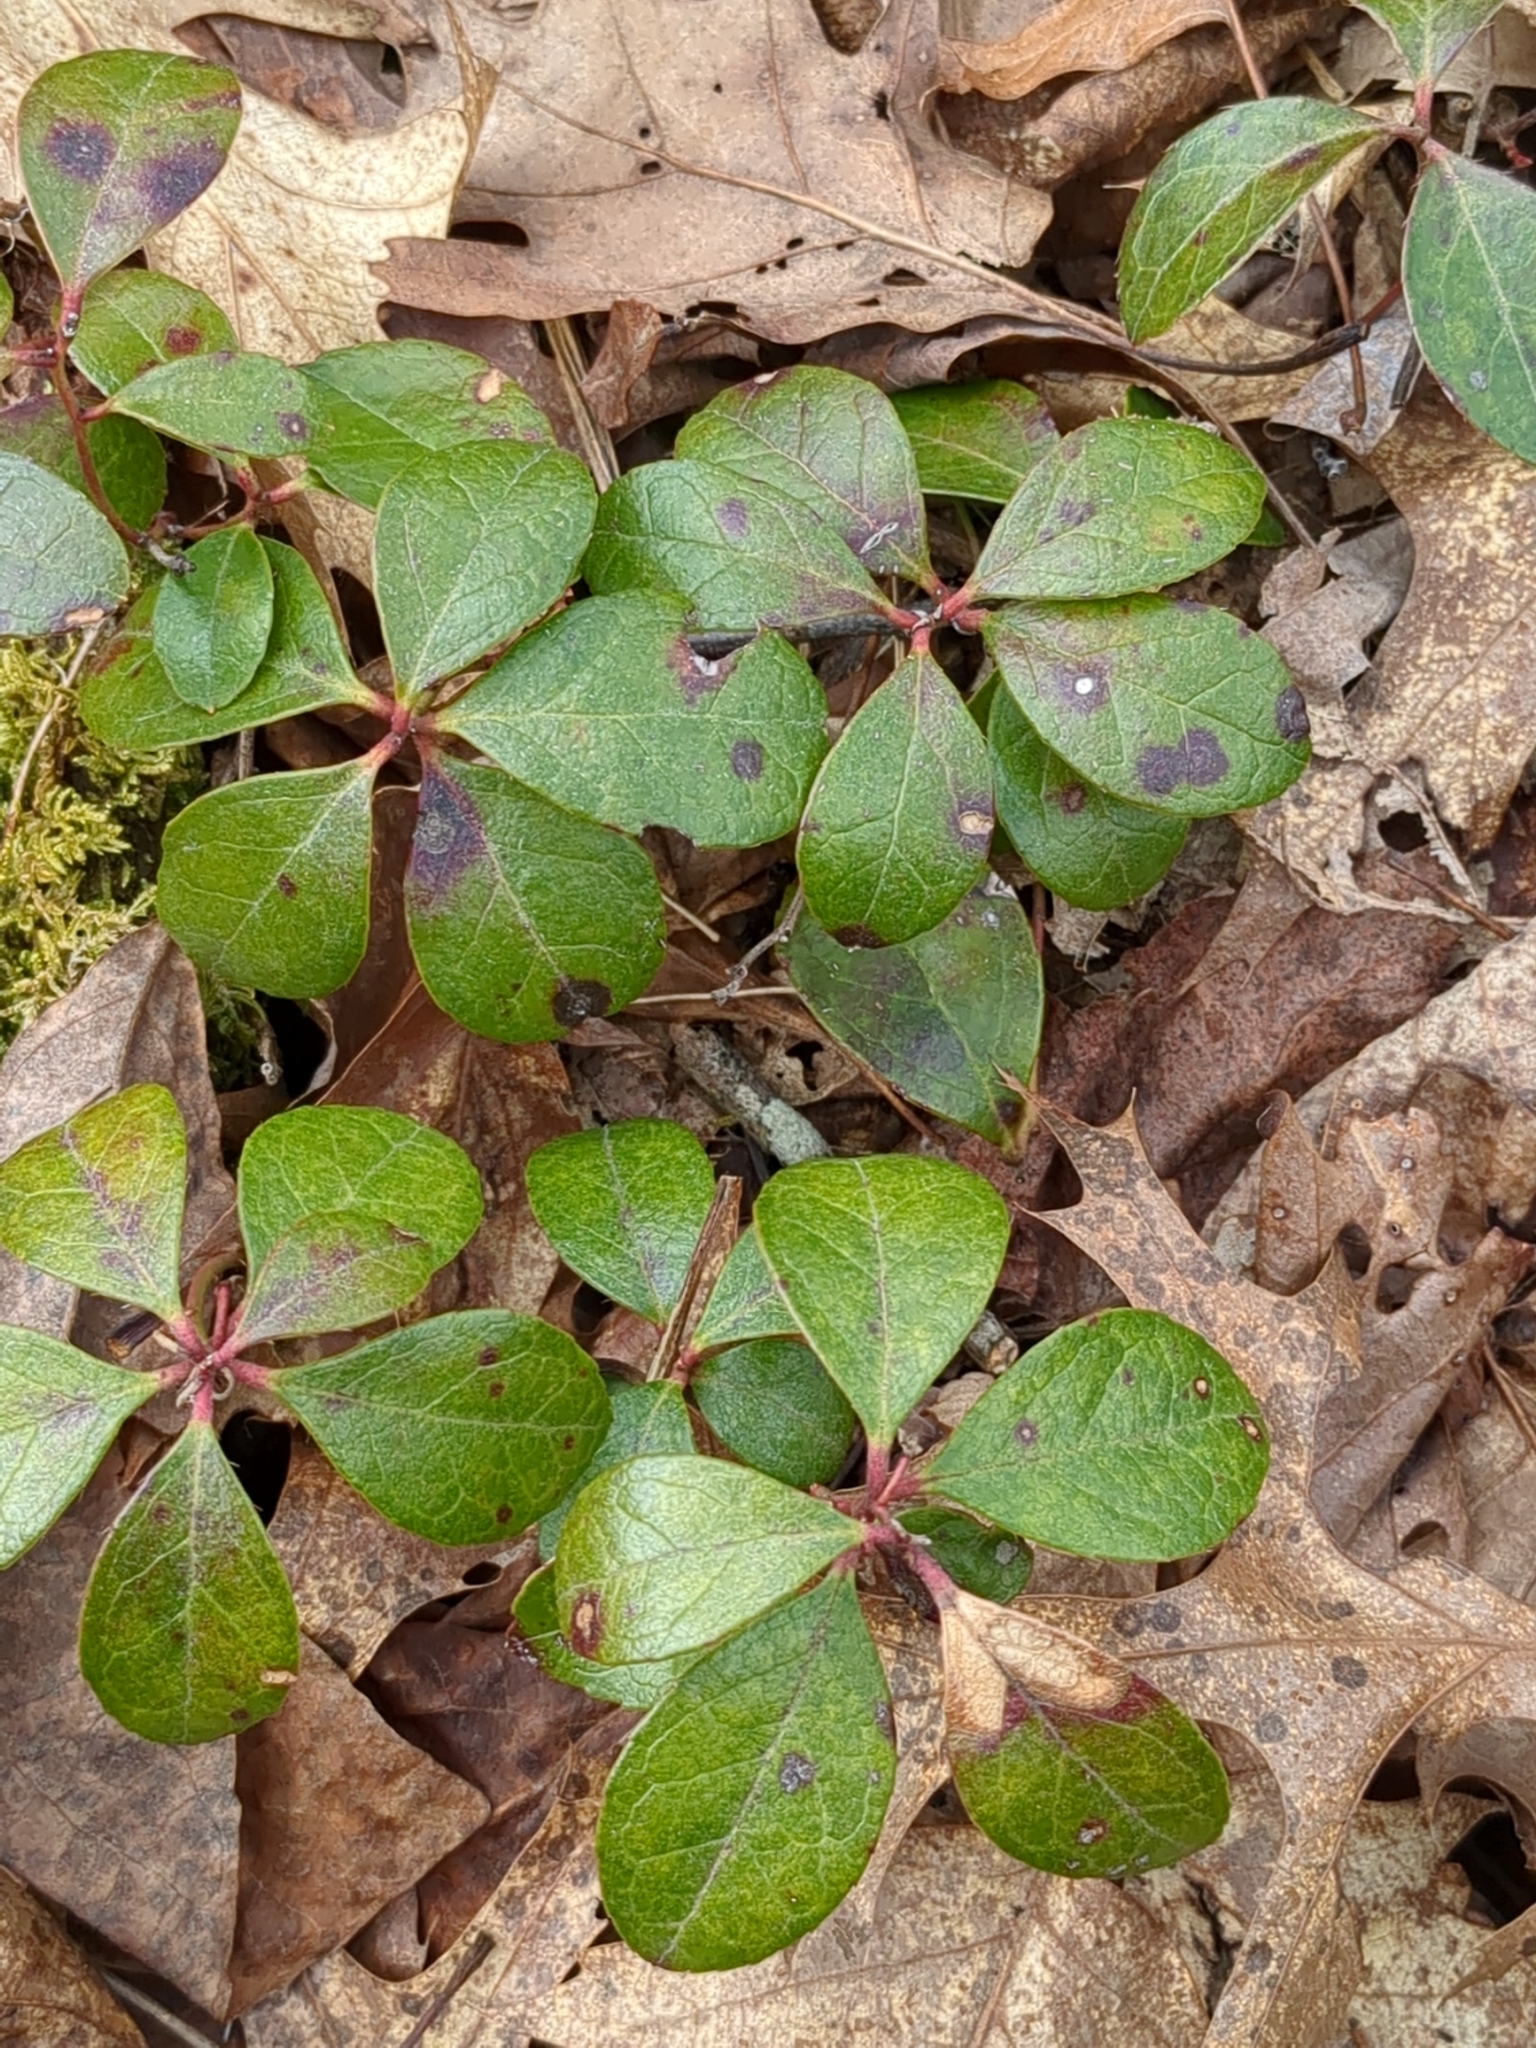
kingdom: Plantae
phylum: Tracheophyta
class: Magnoliopsida
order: Ericales
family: Ericaceae
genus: Gaultheria
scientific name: Gaultheria procumbens
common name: Checkerberry
